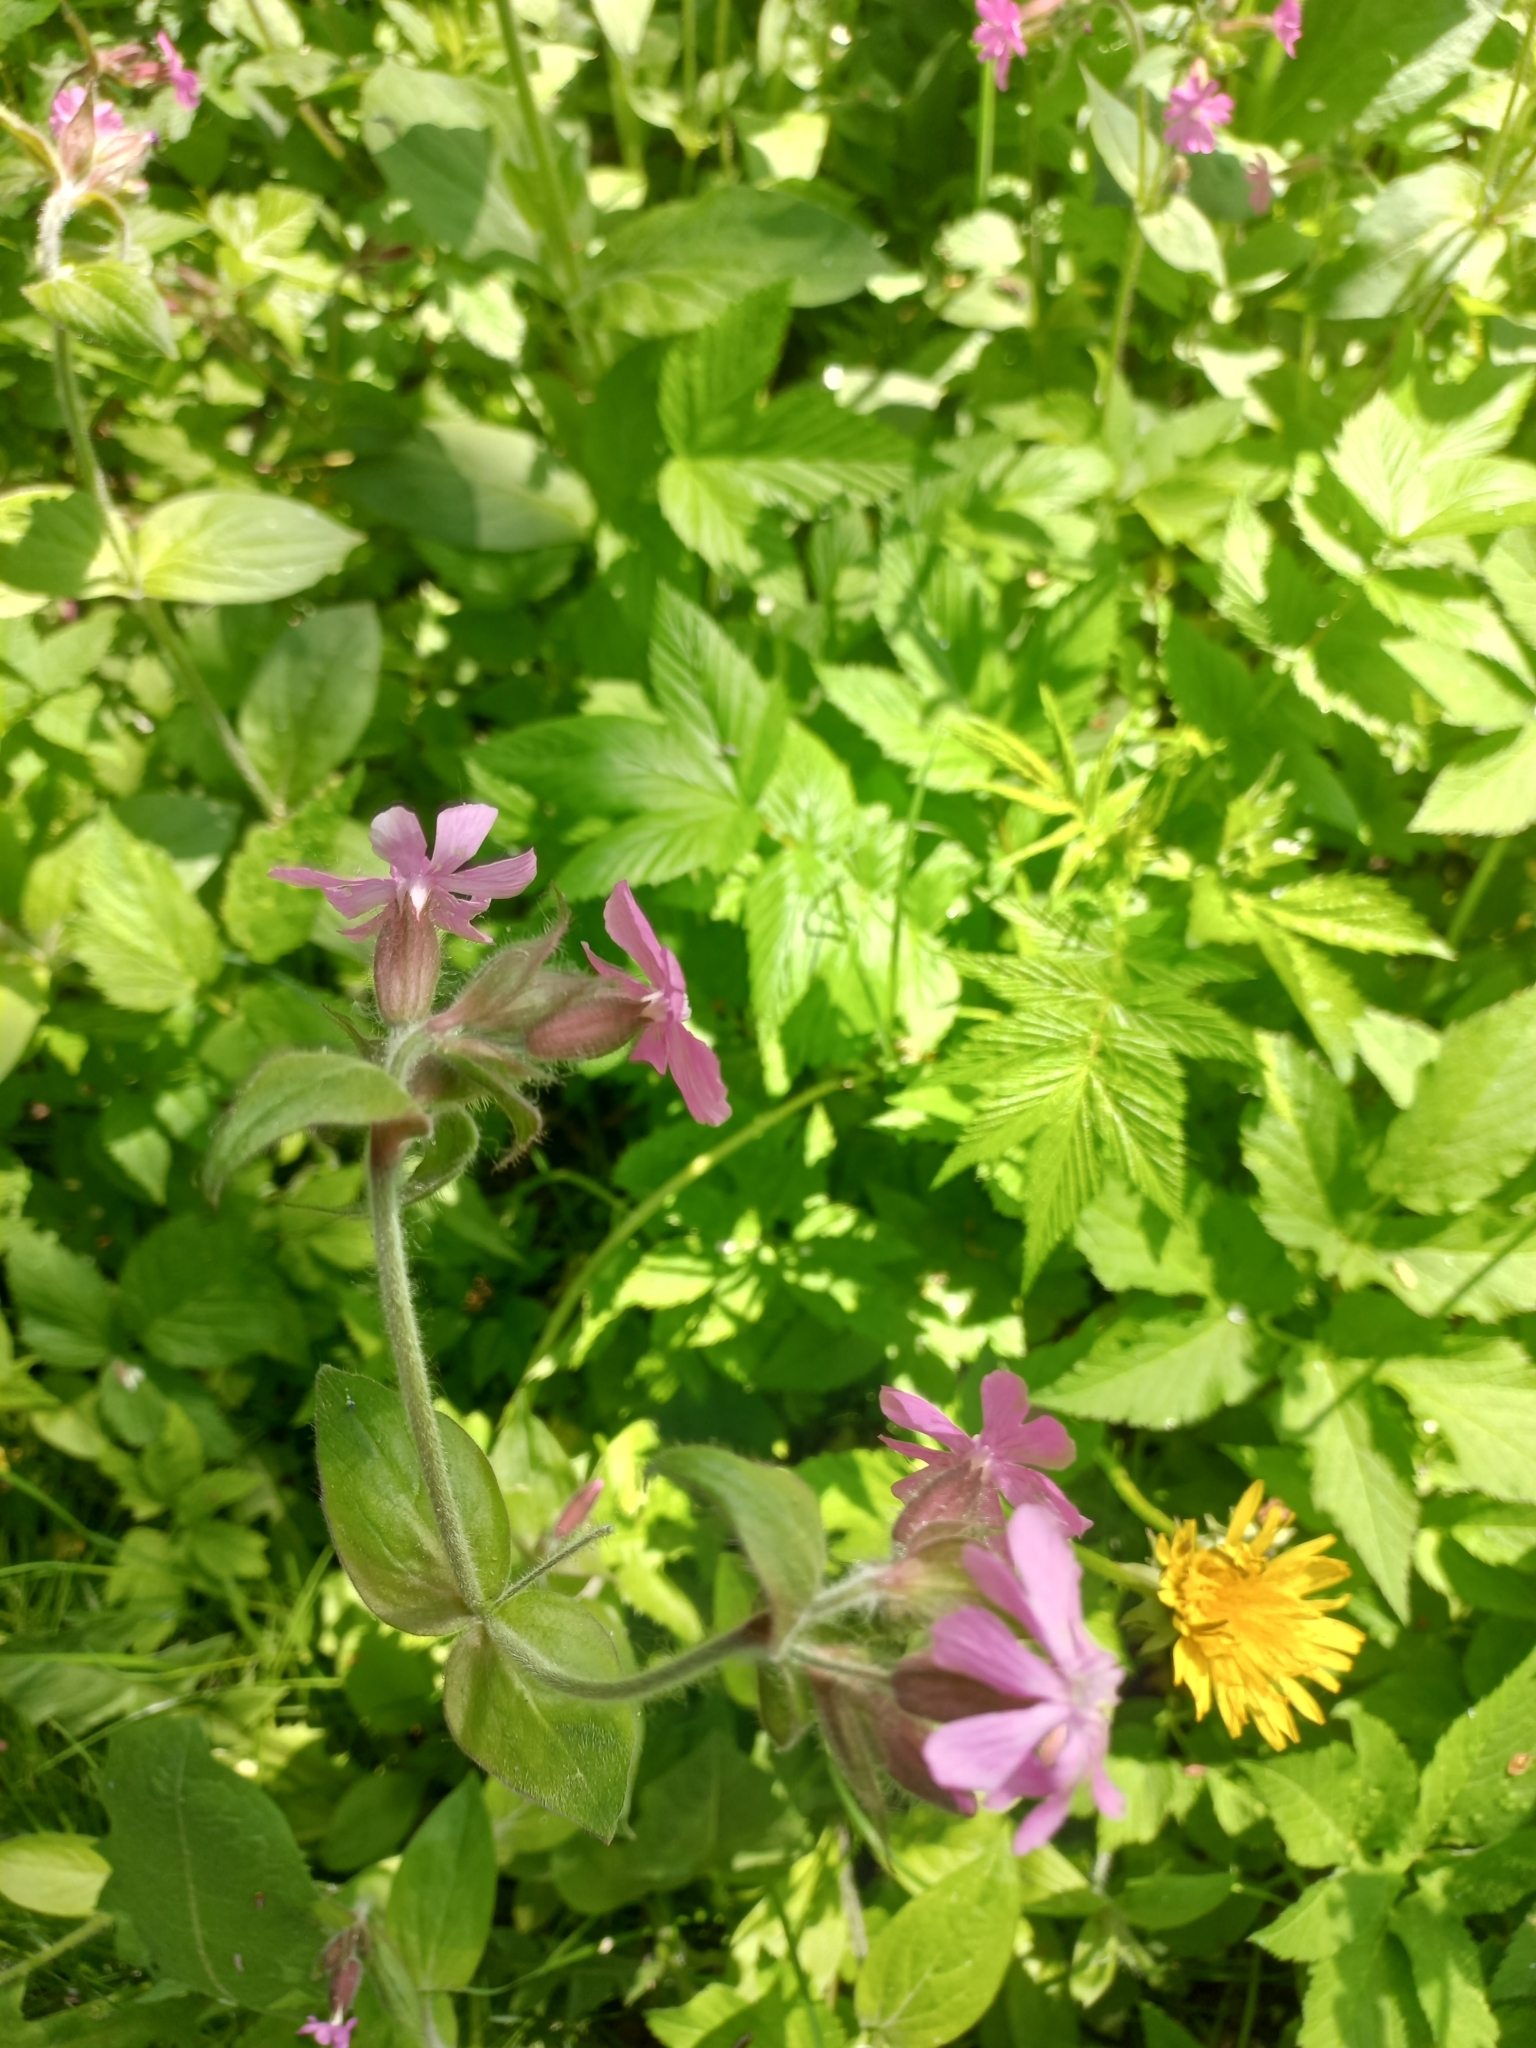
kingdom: Plantae
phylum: Tracheophyta
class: Magnoliopsida
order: Caryophyllales
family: Caryophyllaceae
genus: Silene
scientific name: Silene dioica
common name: Red campion
